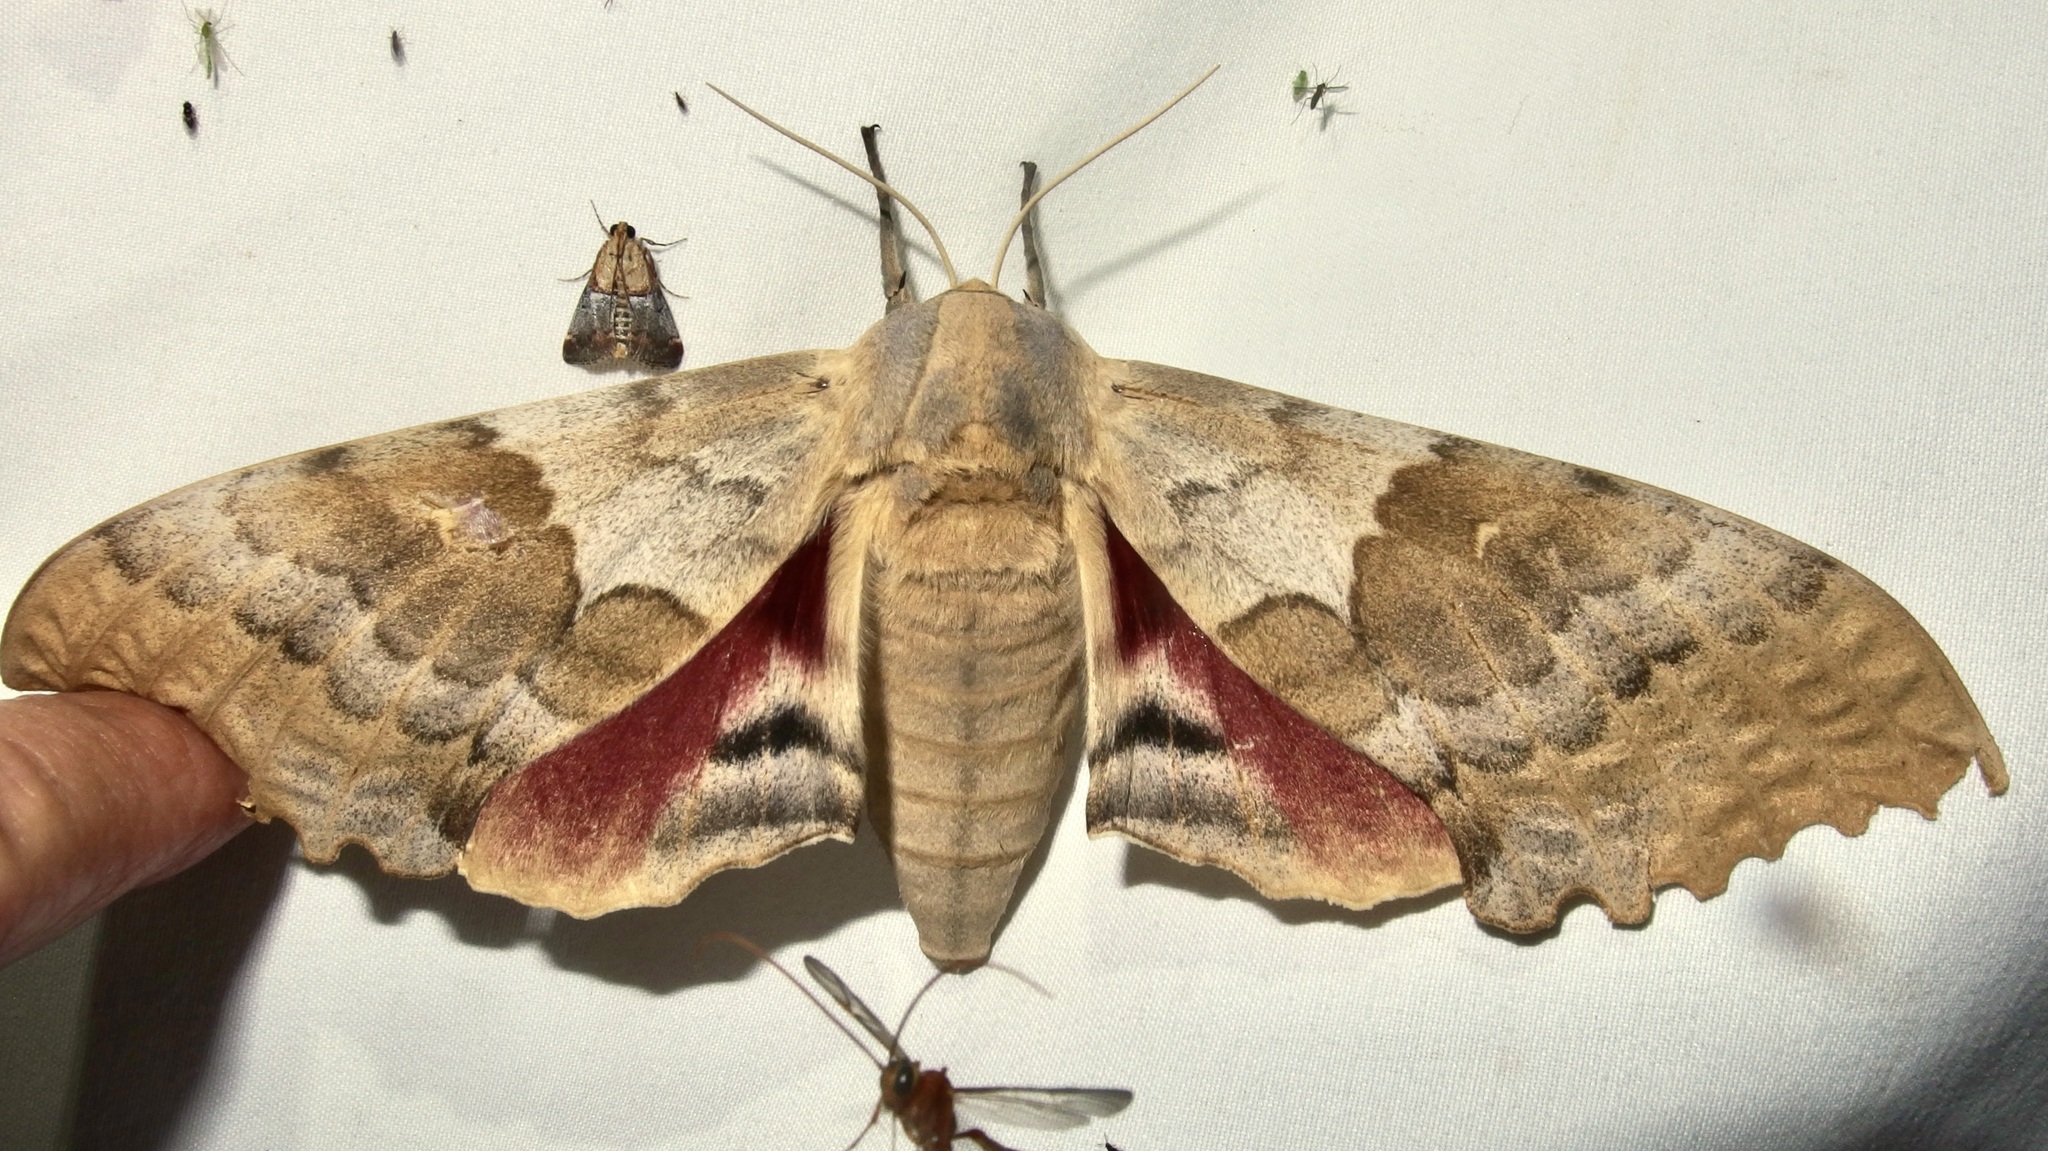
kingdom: Animalia
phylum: Arthropoda
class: Insecta
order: Lepidoptera
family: Sphingidae
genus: Pachysphinx
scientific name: Pachysphinx occidentalis
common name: Western poplar sphinx
